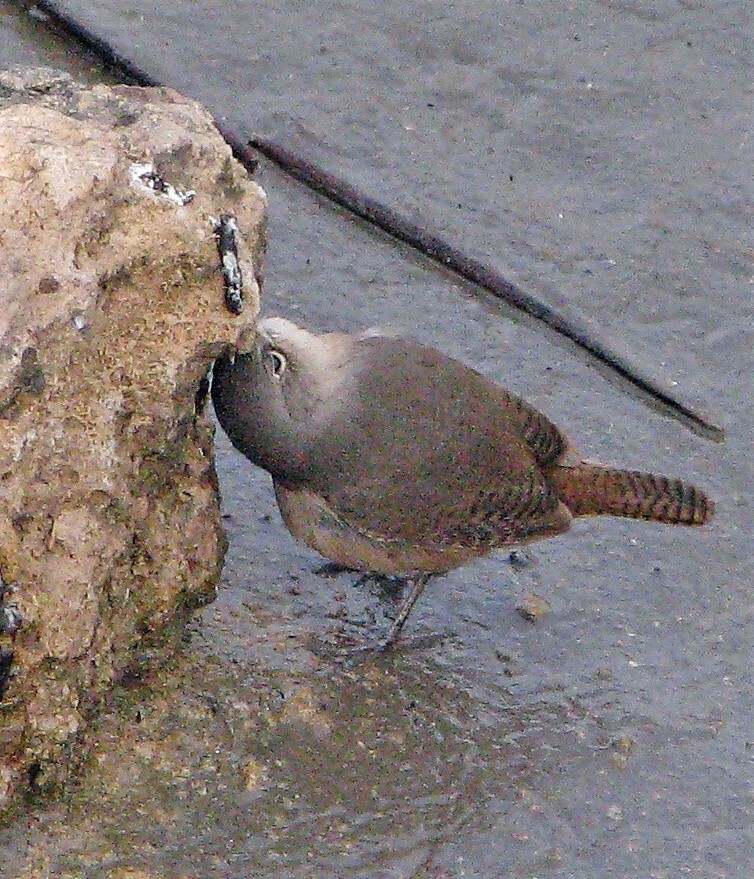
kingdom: Animalia
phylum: Chordata
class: Aves
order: Passeriformes
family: Troglodytidae
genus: Troglodytes
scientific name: Troglodytes aedon
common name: House wren
